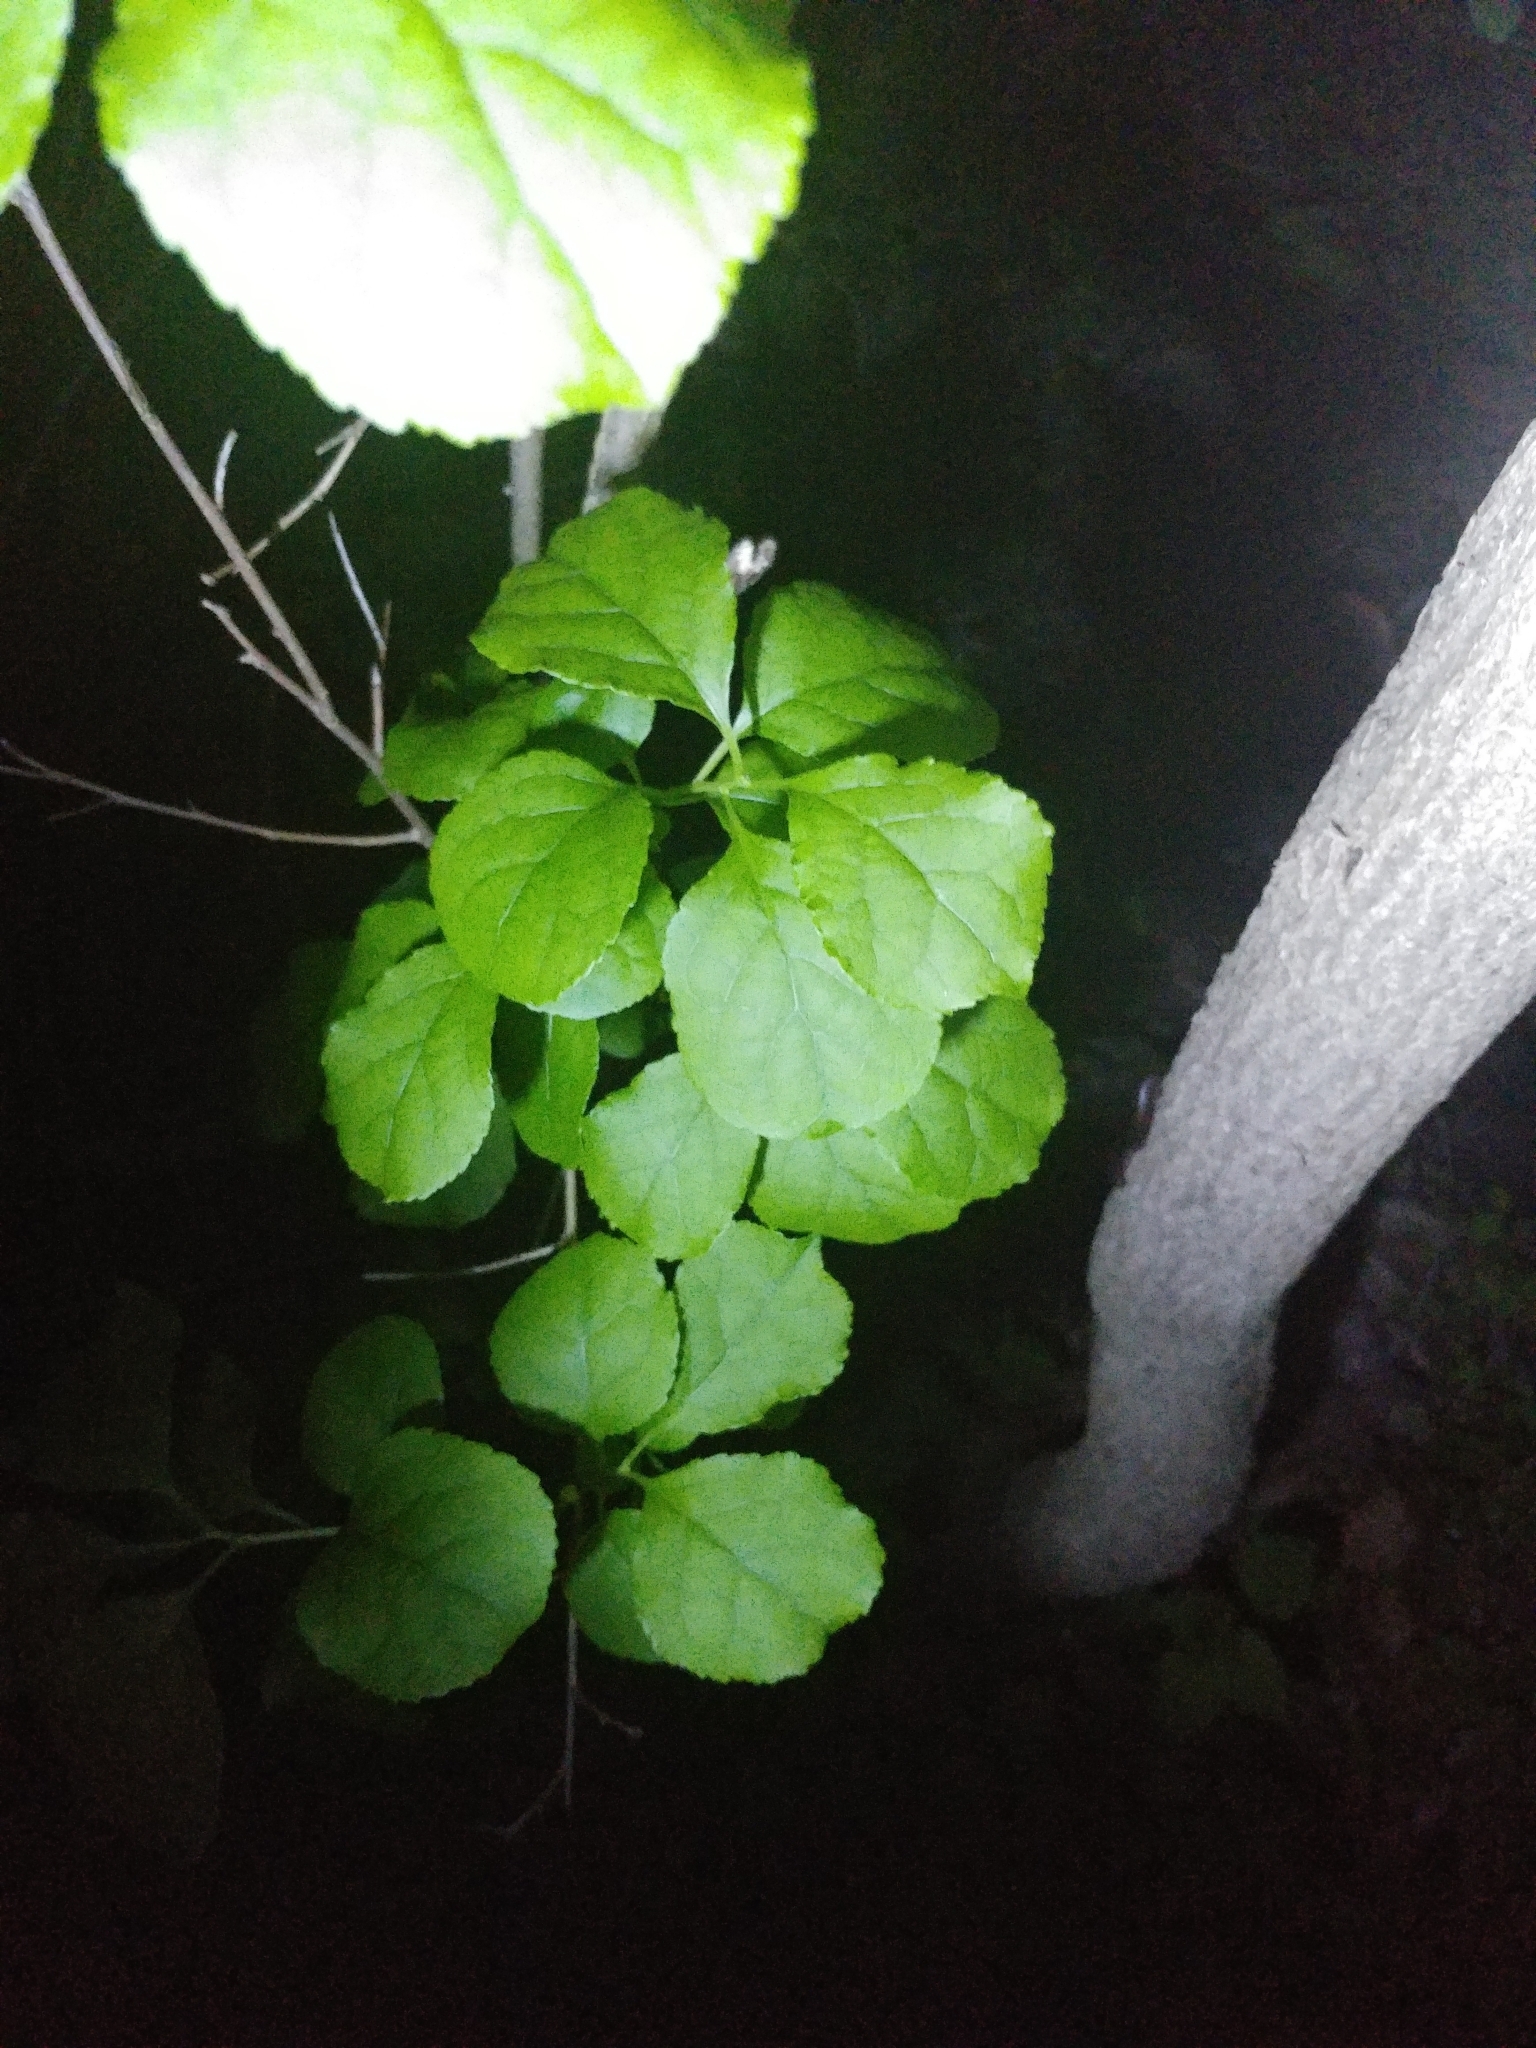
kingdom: Plantae
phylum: Tracheophyta
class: Magnoliopsida
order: Celastrales
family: Celastraceae
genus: Celastrus
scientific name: Celastrus orbiculatus
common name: Oriental bittersweet
